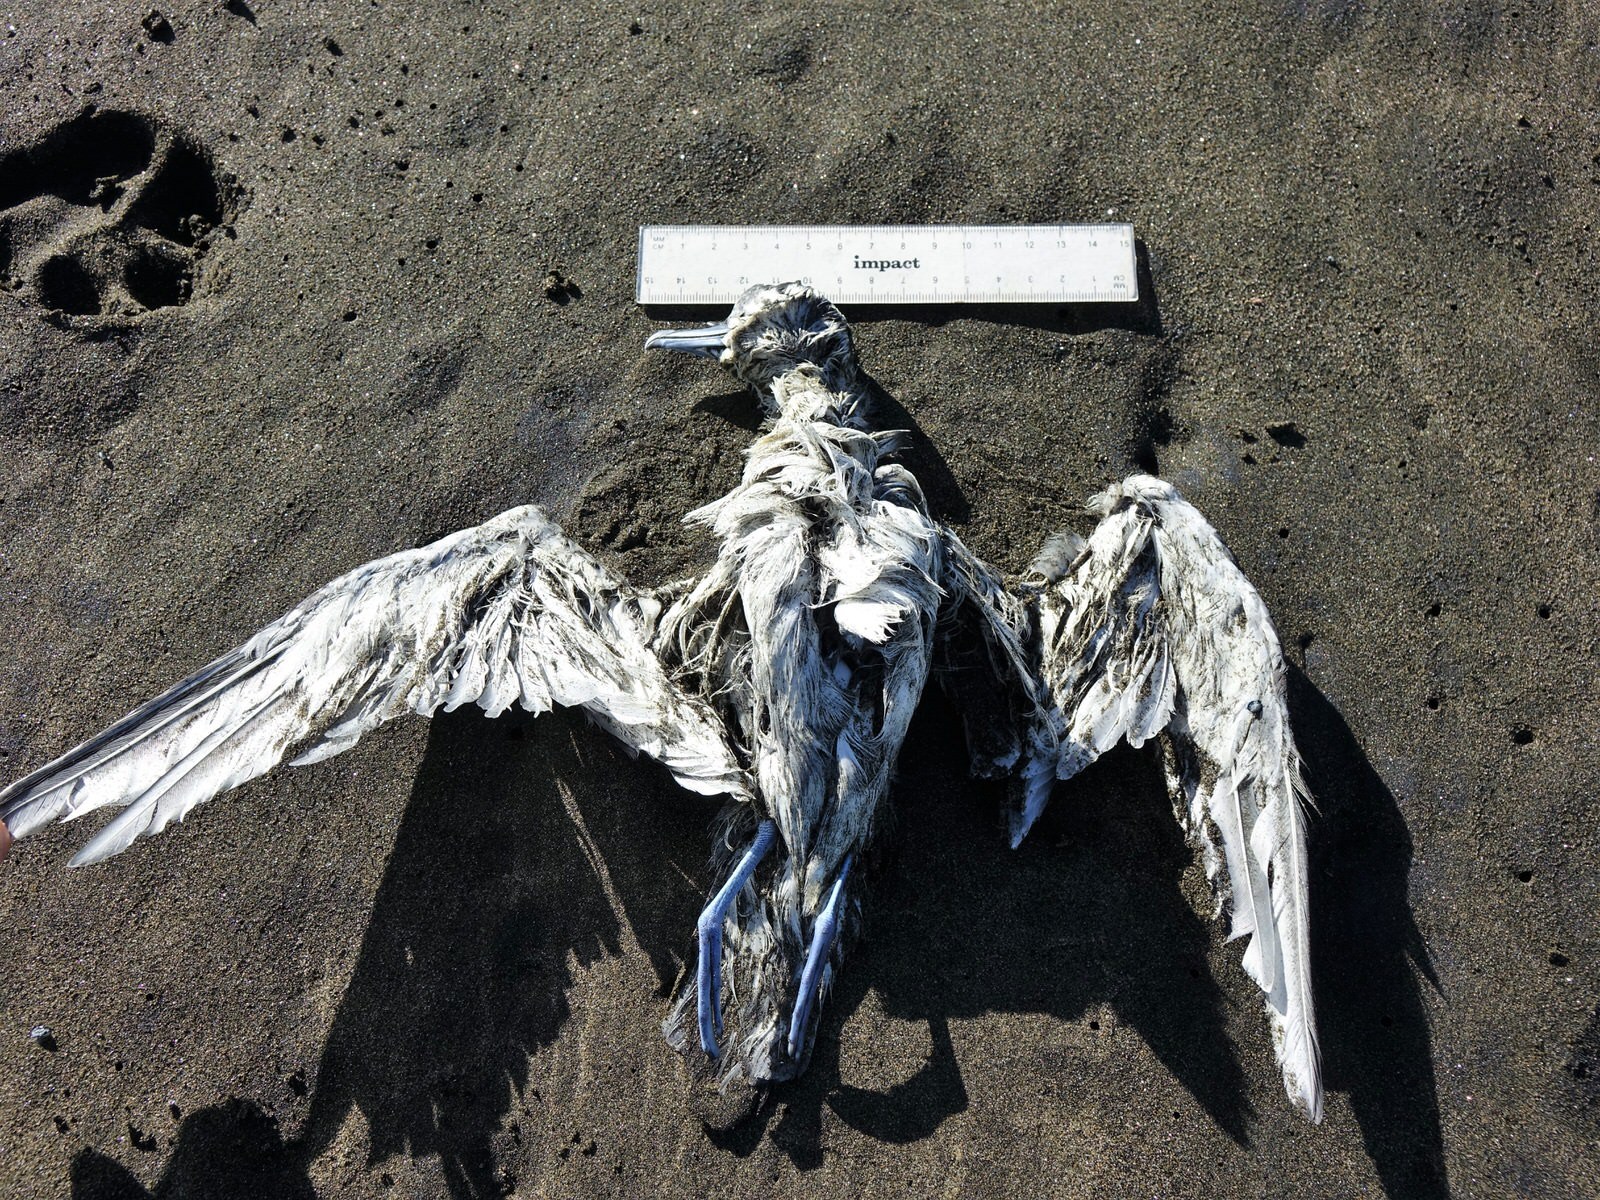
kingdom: Animalia
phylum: Chordata
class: Aves
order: Procellariiformes
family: Procellariidae
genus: Pachyptila
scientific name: Pachyptila turtur
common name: Fairy prion
